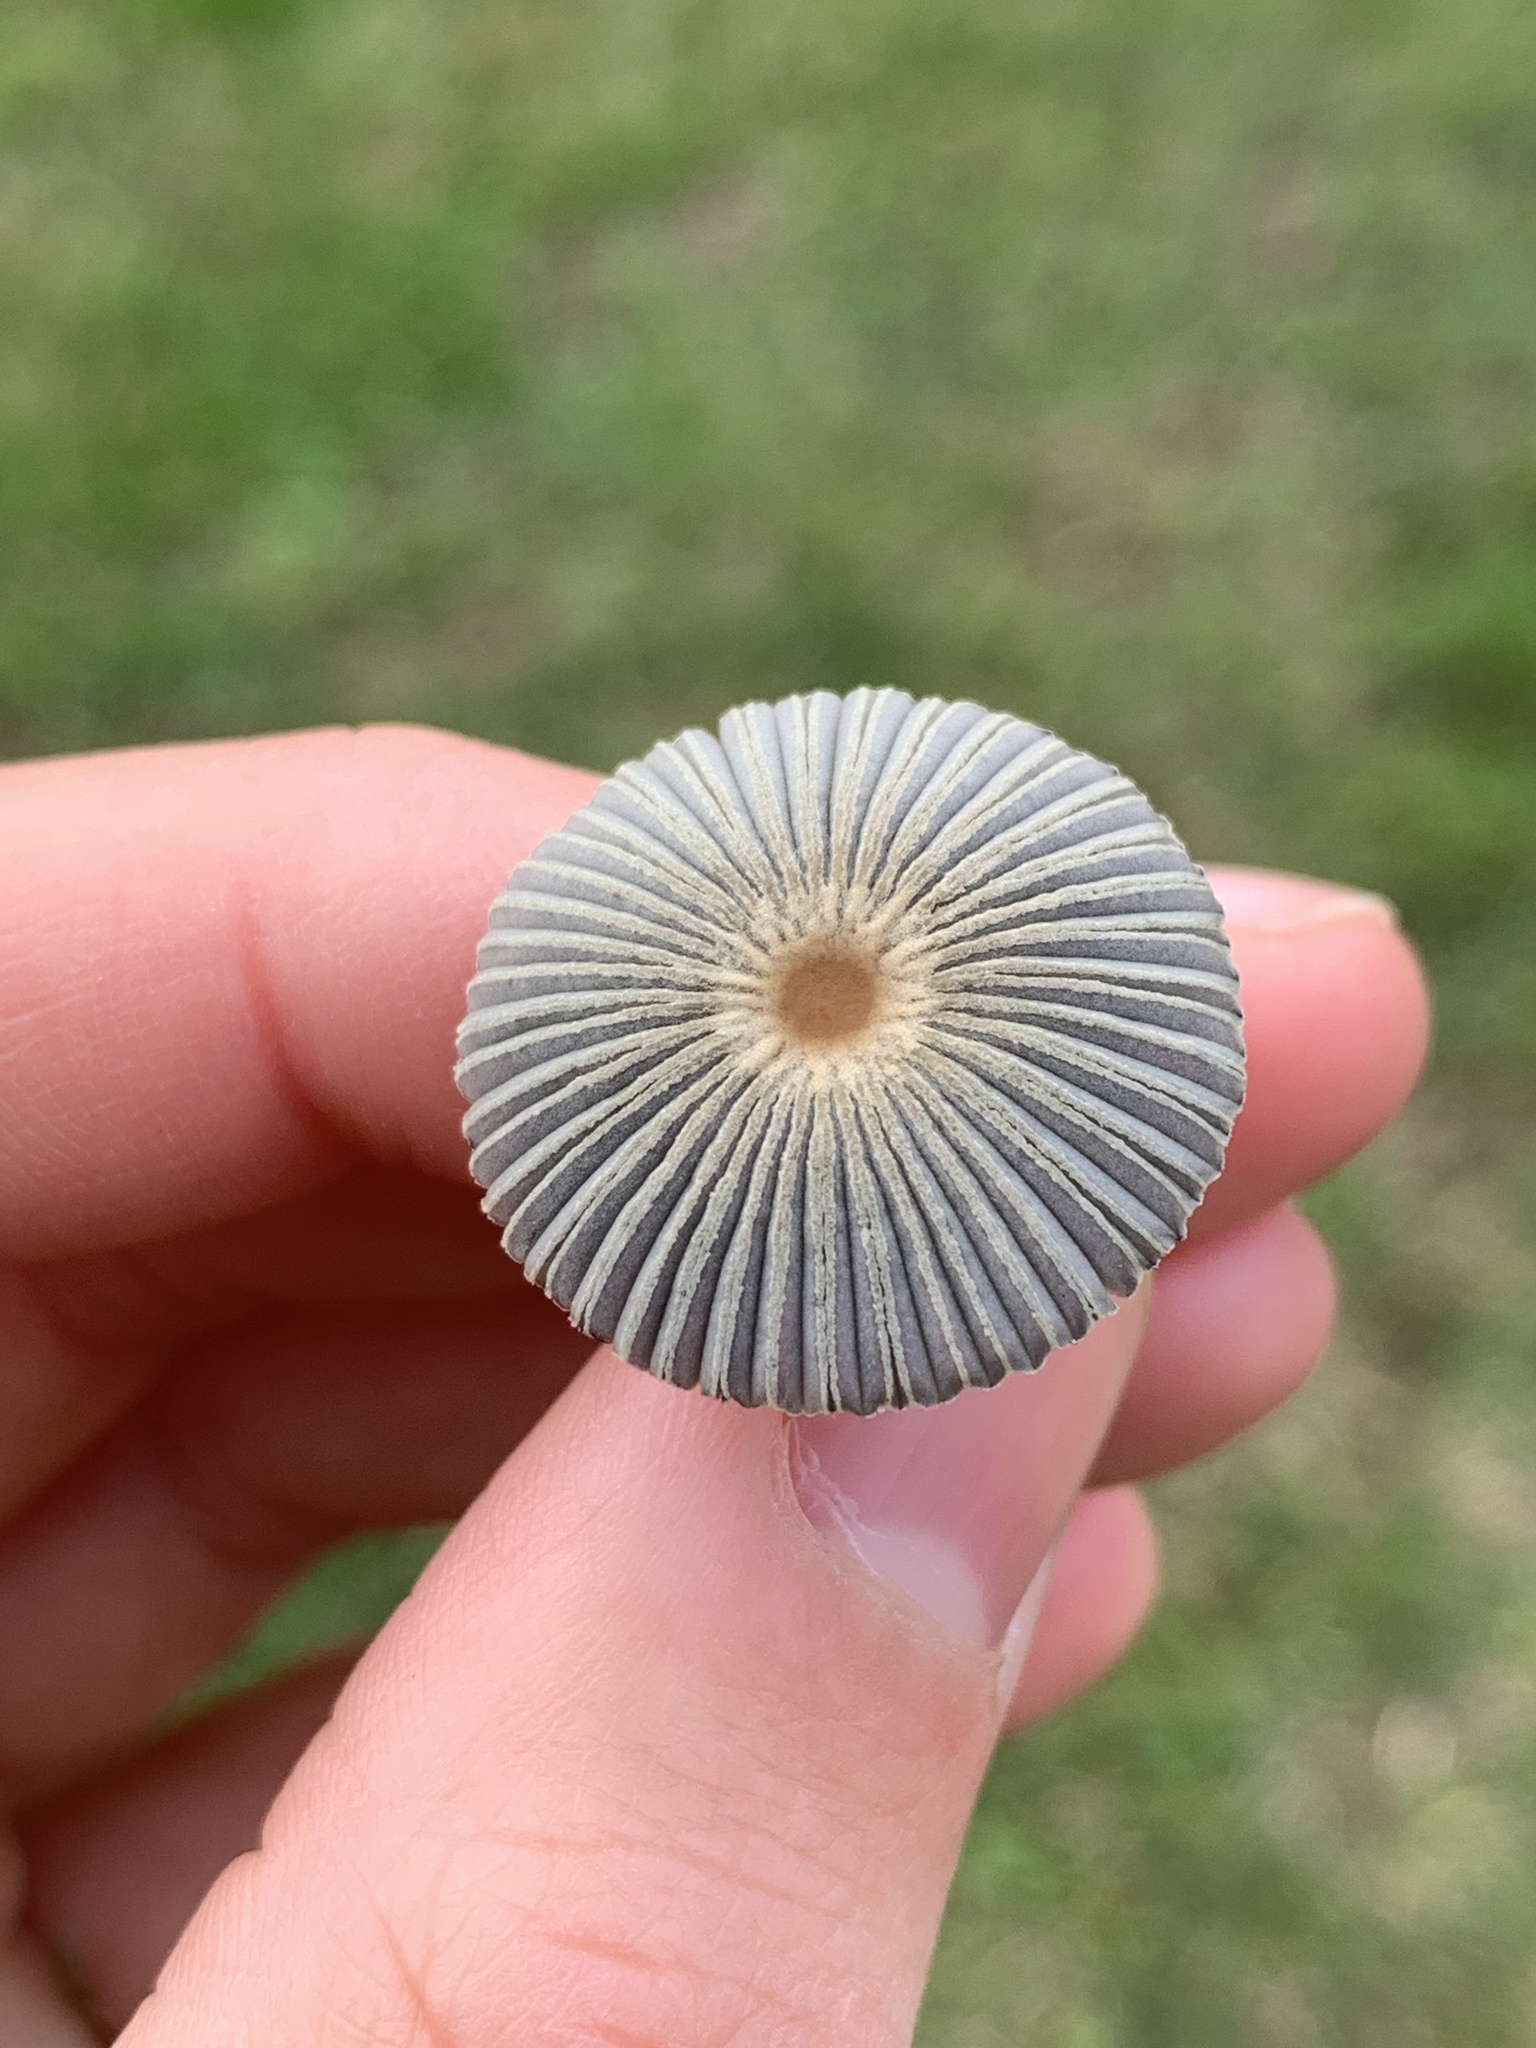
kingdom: Fungi
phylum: Basidiomycota
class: Agaricomycetes
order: Agaricales
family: Psathyrellaceae
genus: Parasola
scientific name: Parasola plicatilis
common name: Pleated inkcap
